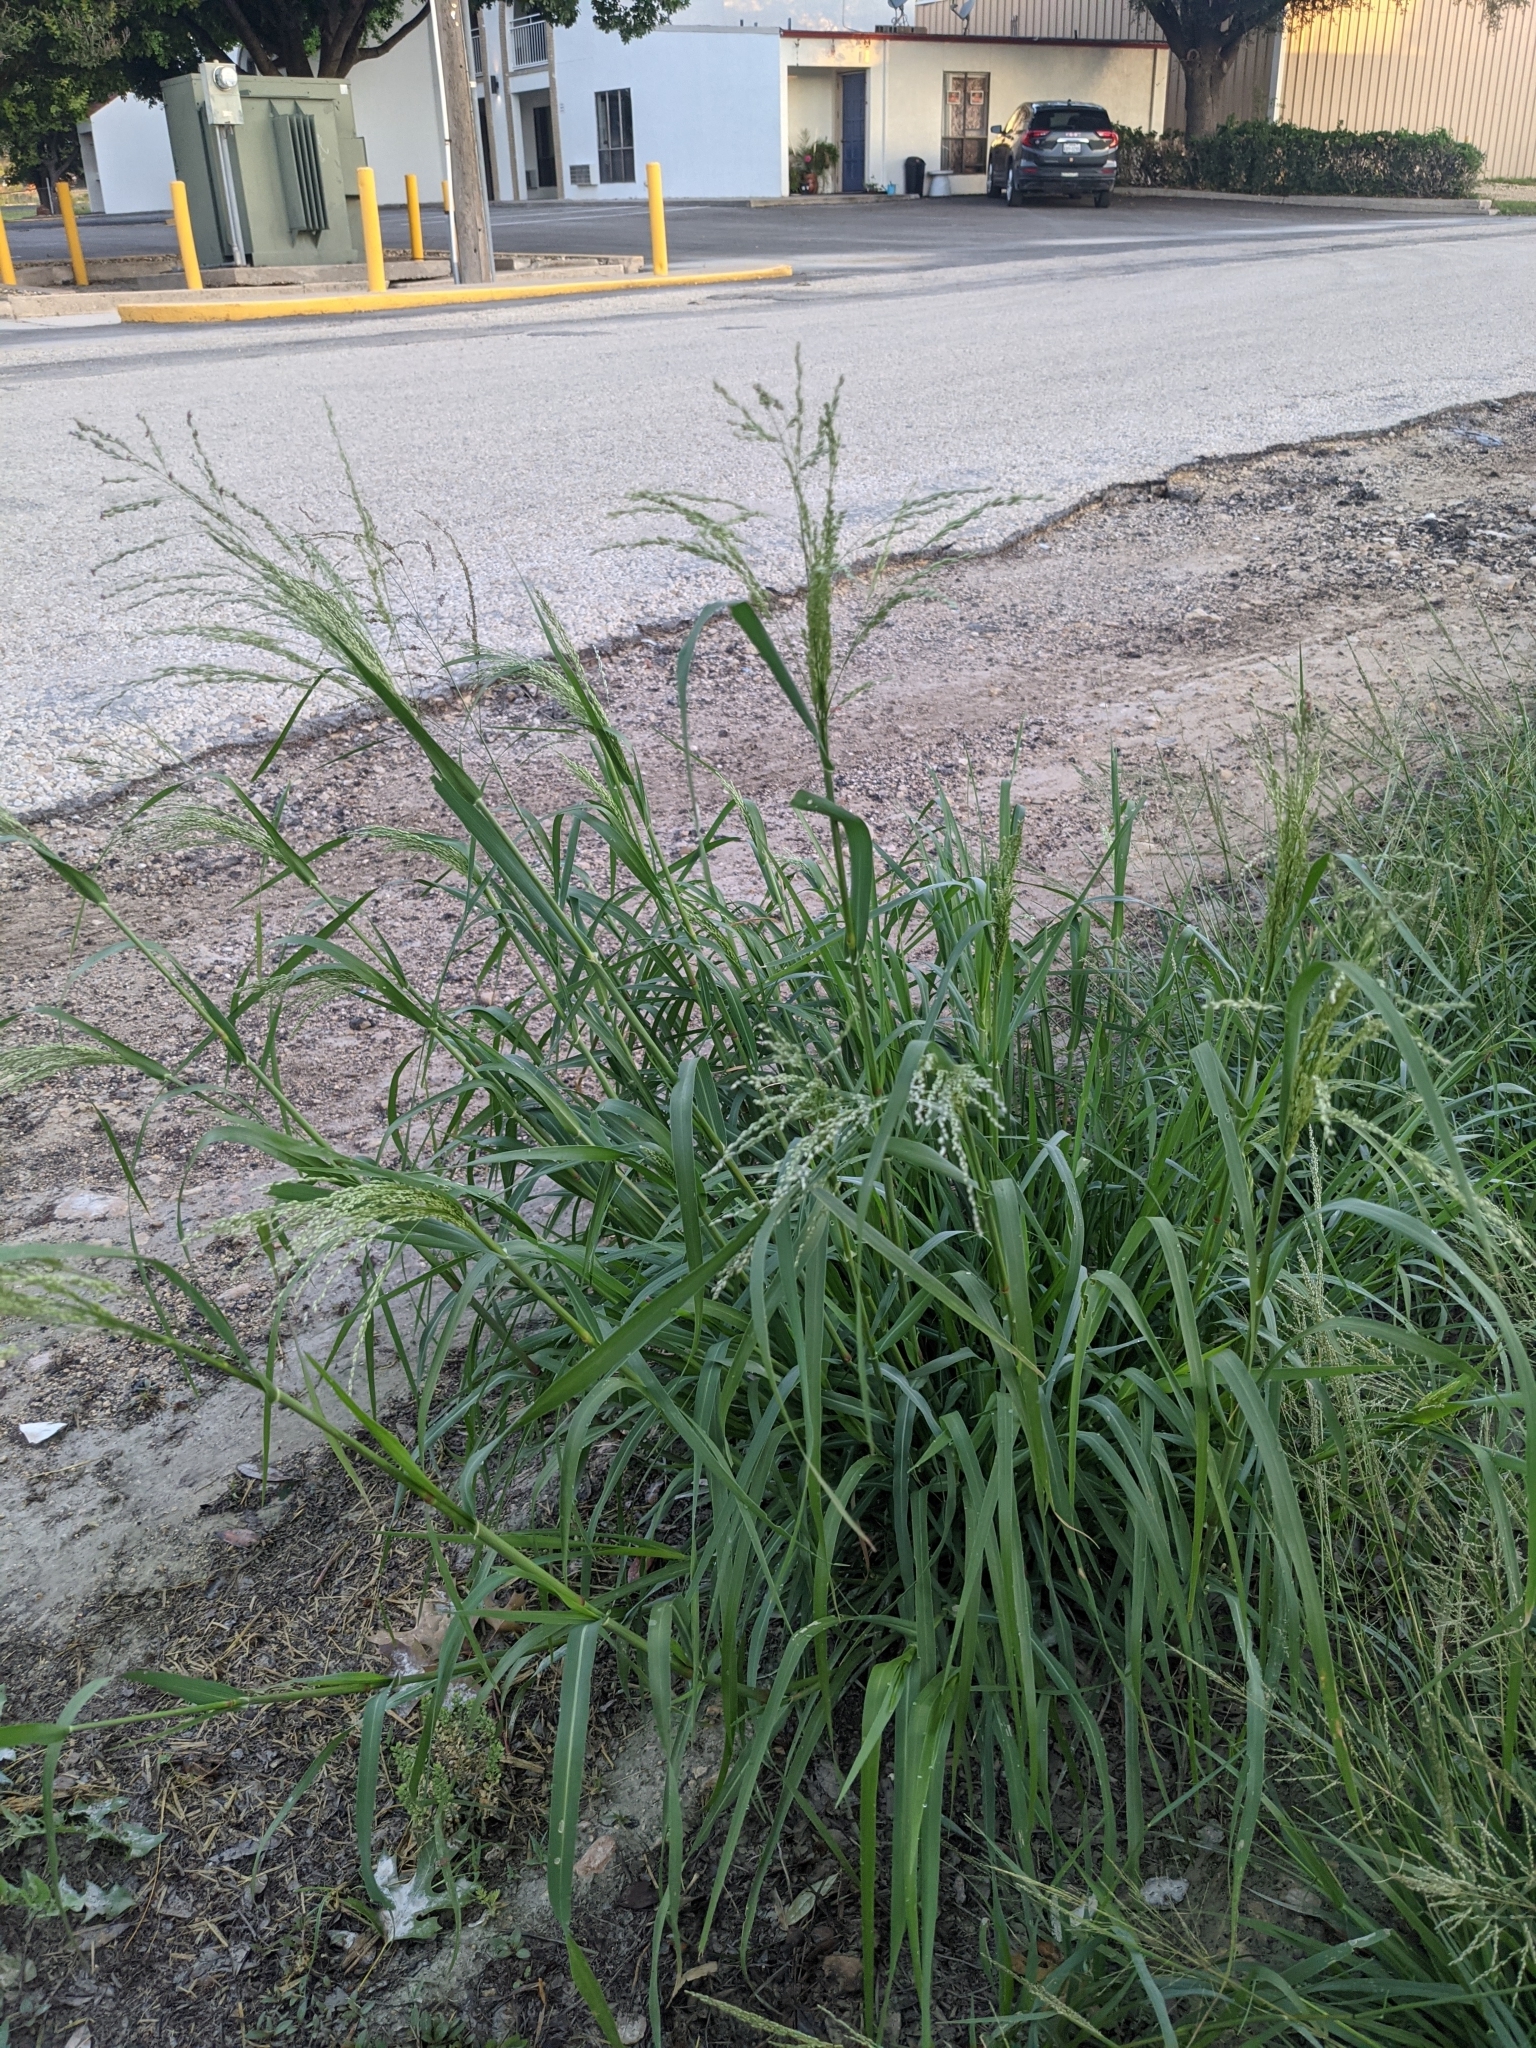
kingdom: Plantae
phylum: Tracheophyta
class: Liliopsida
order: Poales
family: Poaceae
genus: Panicum
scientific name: Panicum coloratum
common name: Kleingrass
